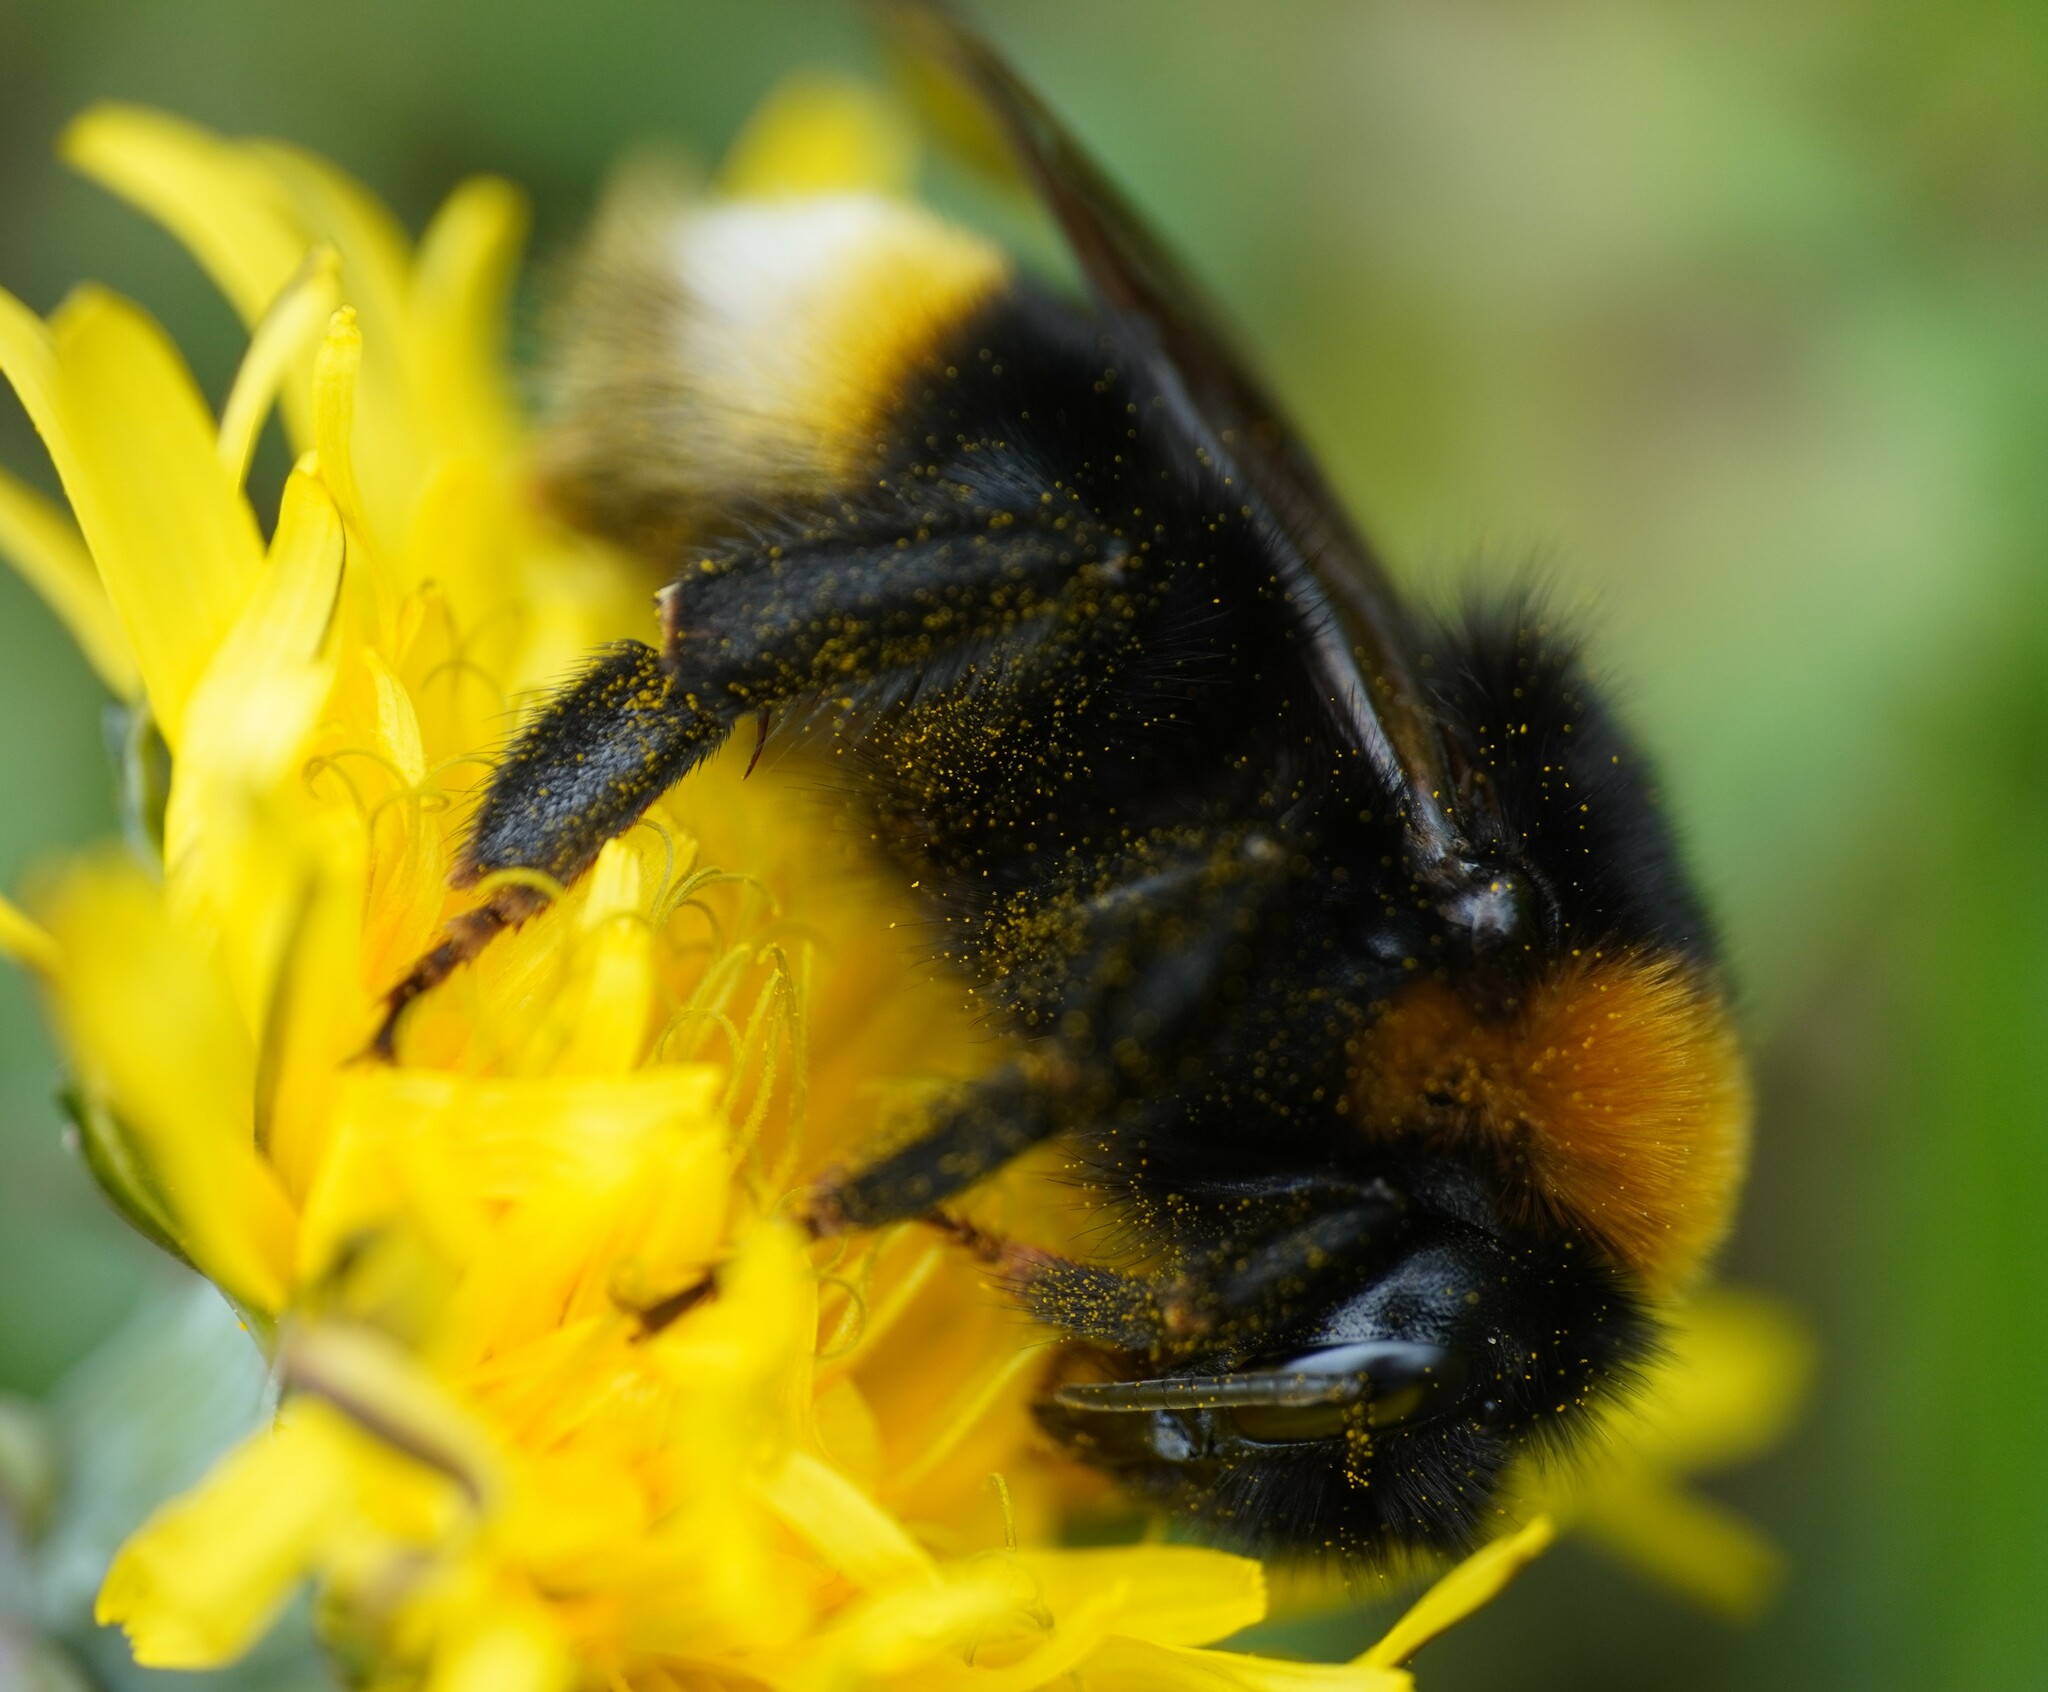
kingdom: Animalia
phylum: Arthropoda
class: Insecta
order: Hymenoptera
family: Apidae
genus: Bombus
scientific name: Bombus vestalis
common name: Vestal cuckoo bee
